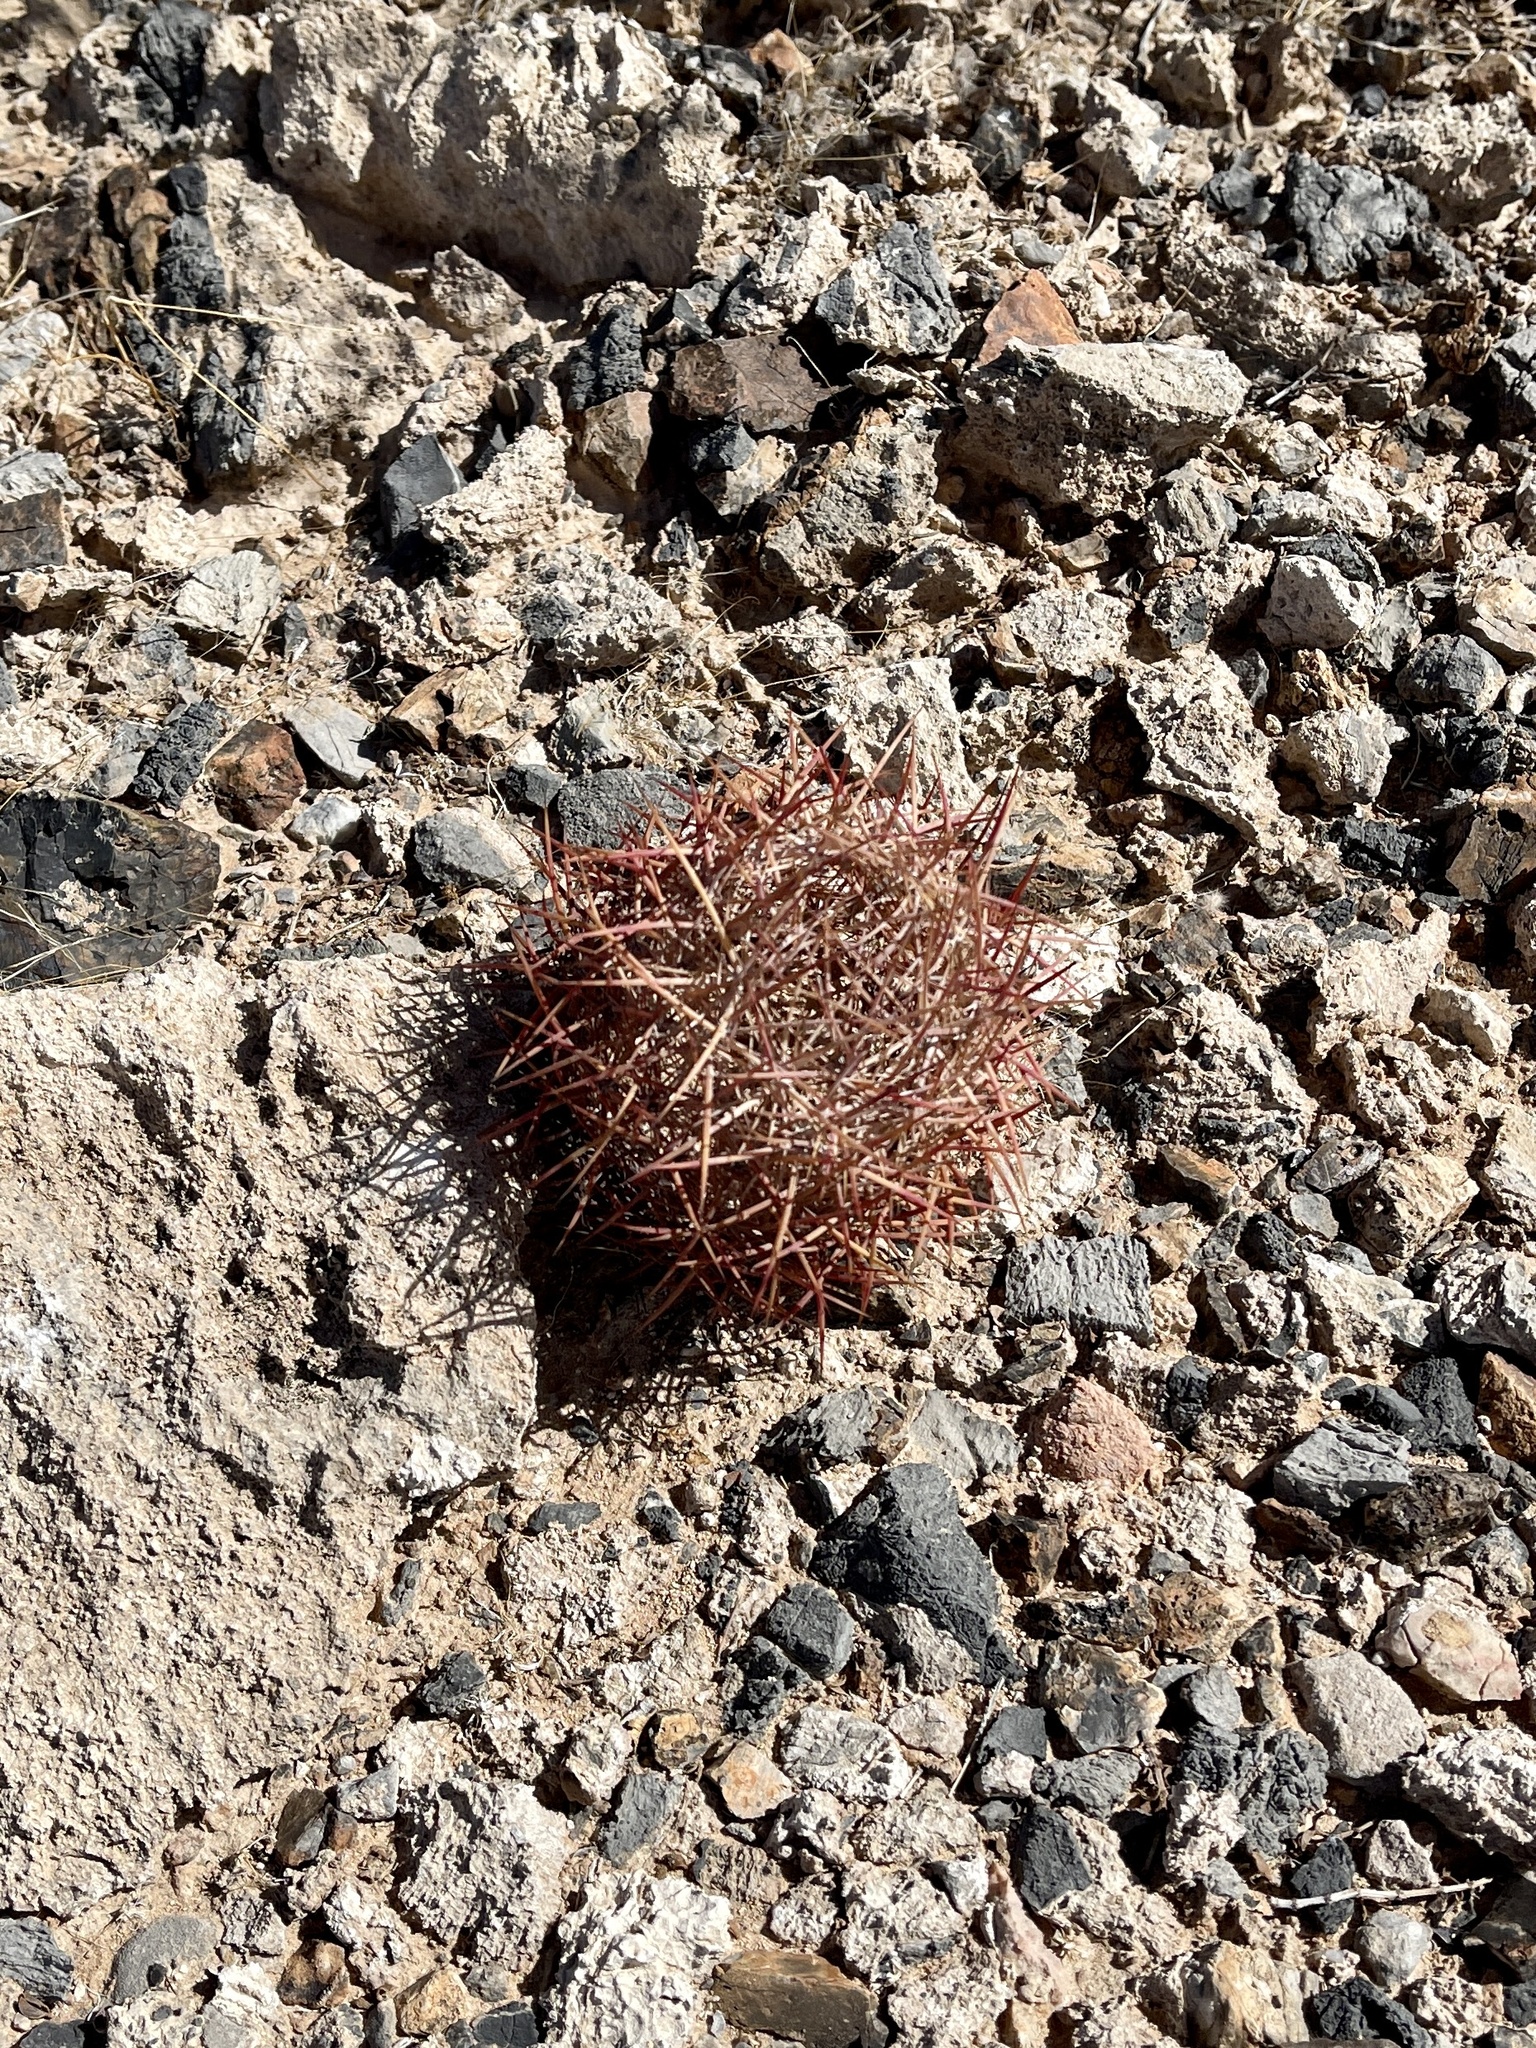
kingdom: Plantae
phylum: Tracheophyta
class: Magnoliopsida
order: Caryophyllales
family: Cactaceae
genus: Sclerocactus
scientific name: Sclerocactus johnsonii
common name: Eight-spine fishhook cactus
